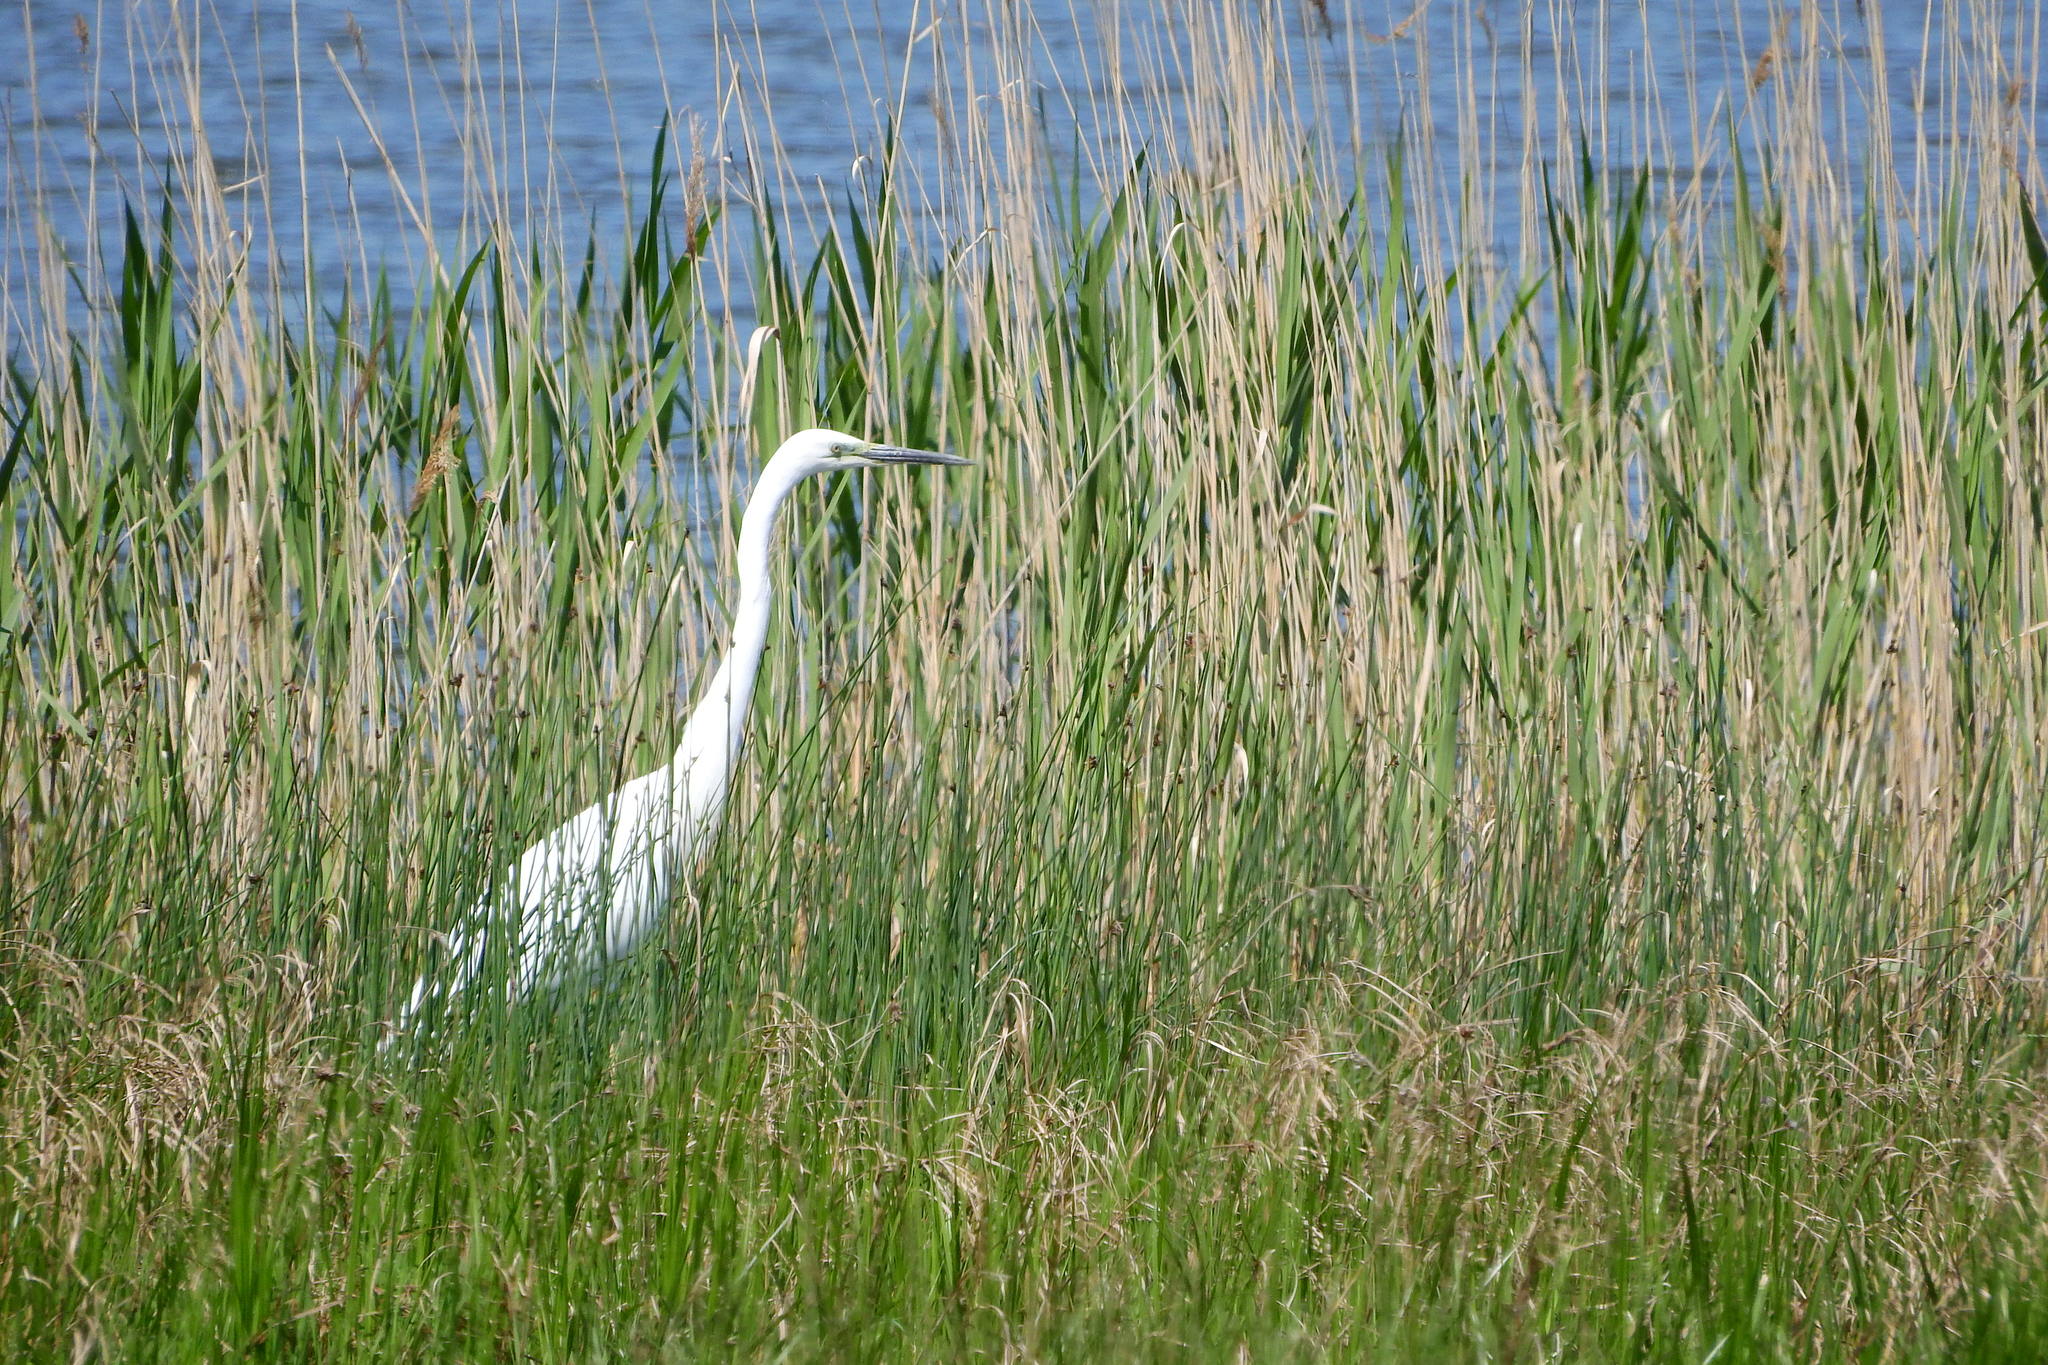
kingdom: Animalia
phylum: Chordata
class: Aves
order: Pelecaniformes
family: Ardeidae
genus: Egretta
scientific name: Egretta garzetta
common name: Little egret
